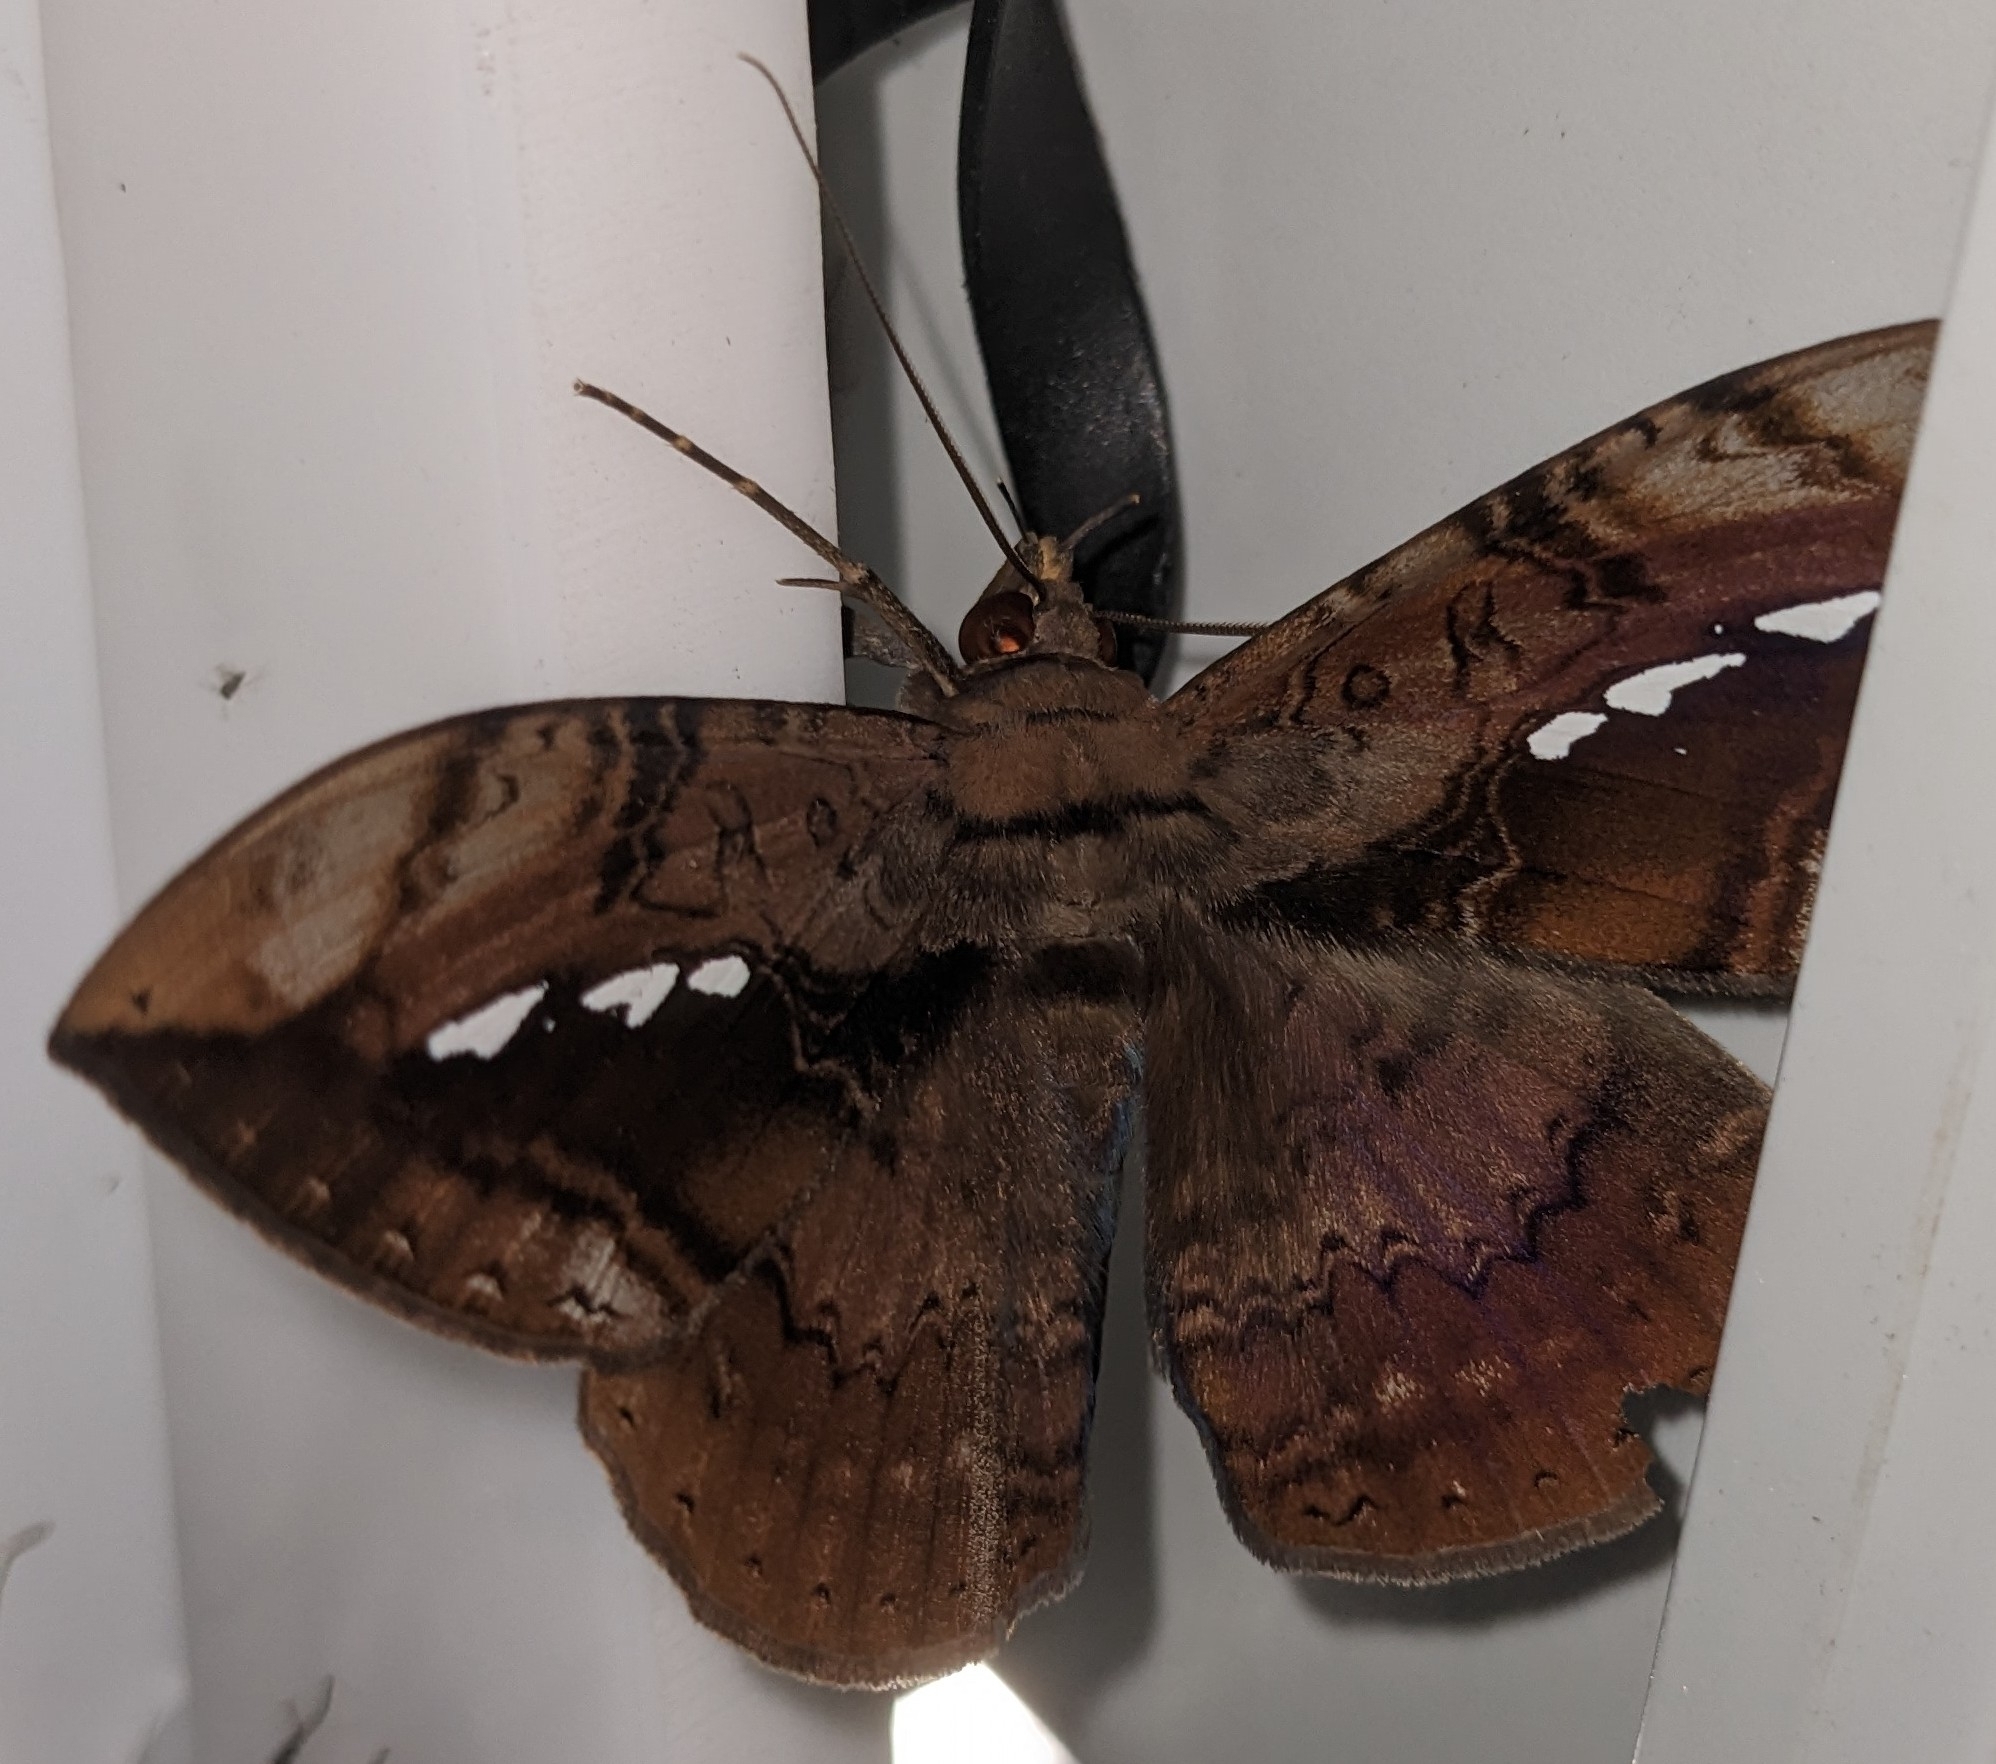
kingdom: Animalia
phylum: Arthropoda
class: Insecta
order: Lepidoptera
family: Erebidae
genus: Hemeroblemma
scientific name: Hemeroblemma acron
